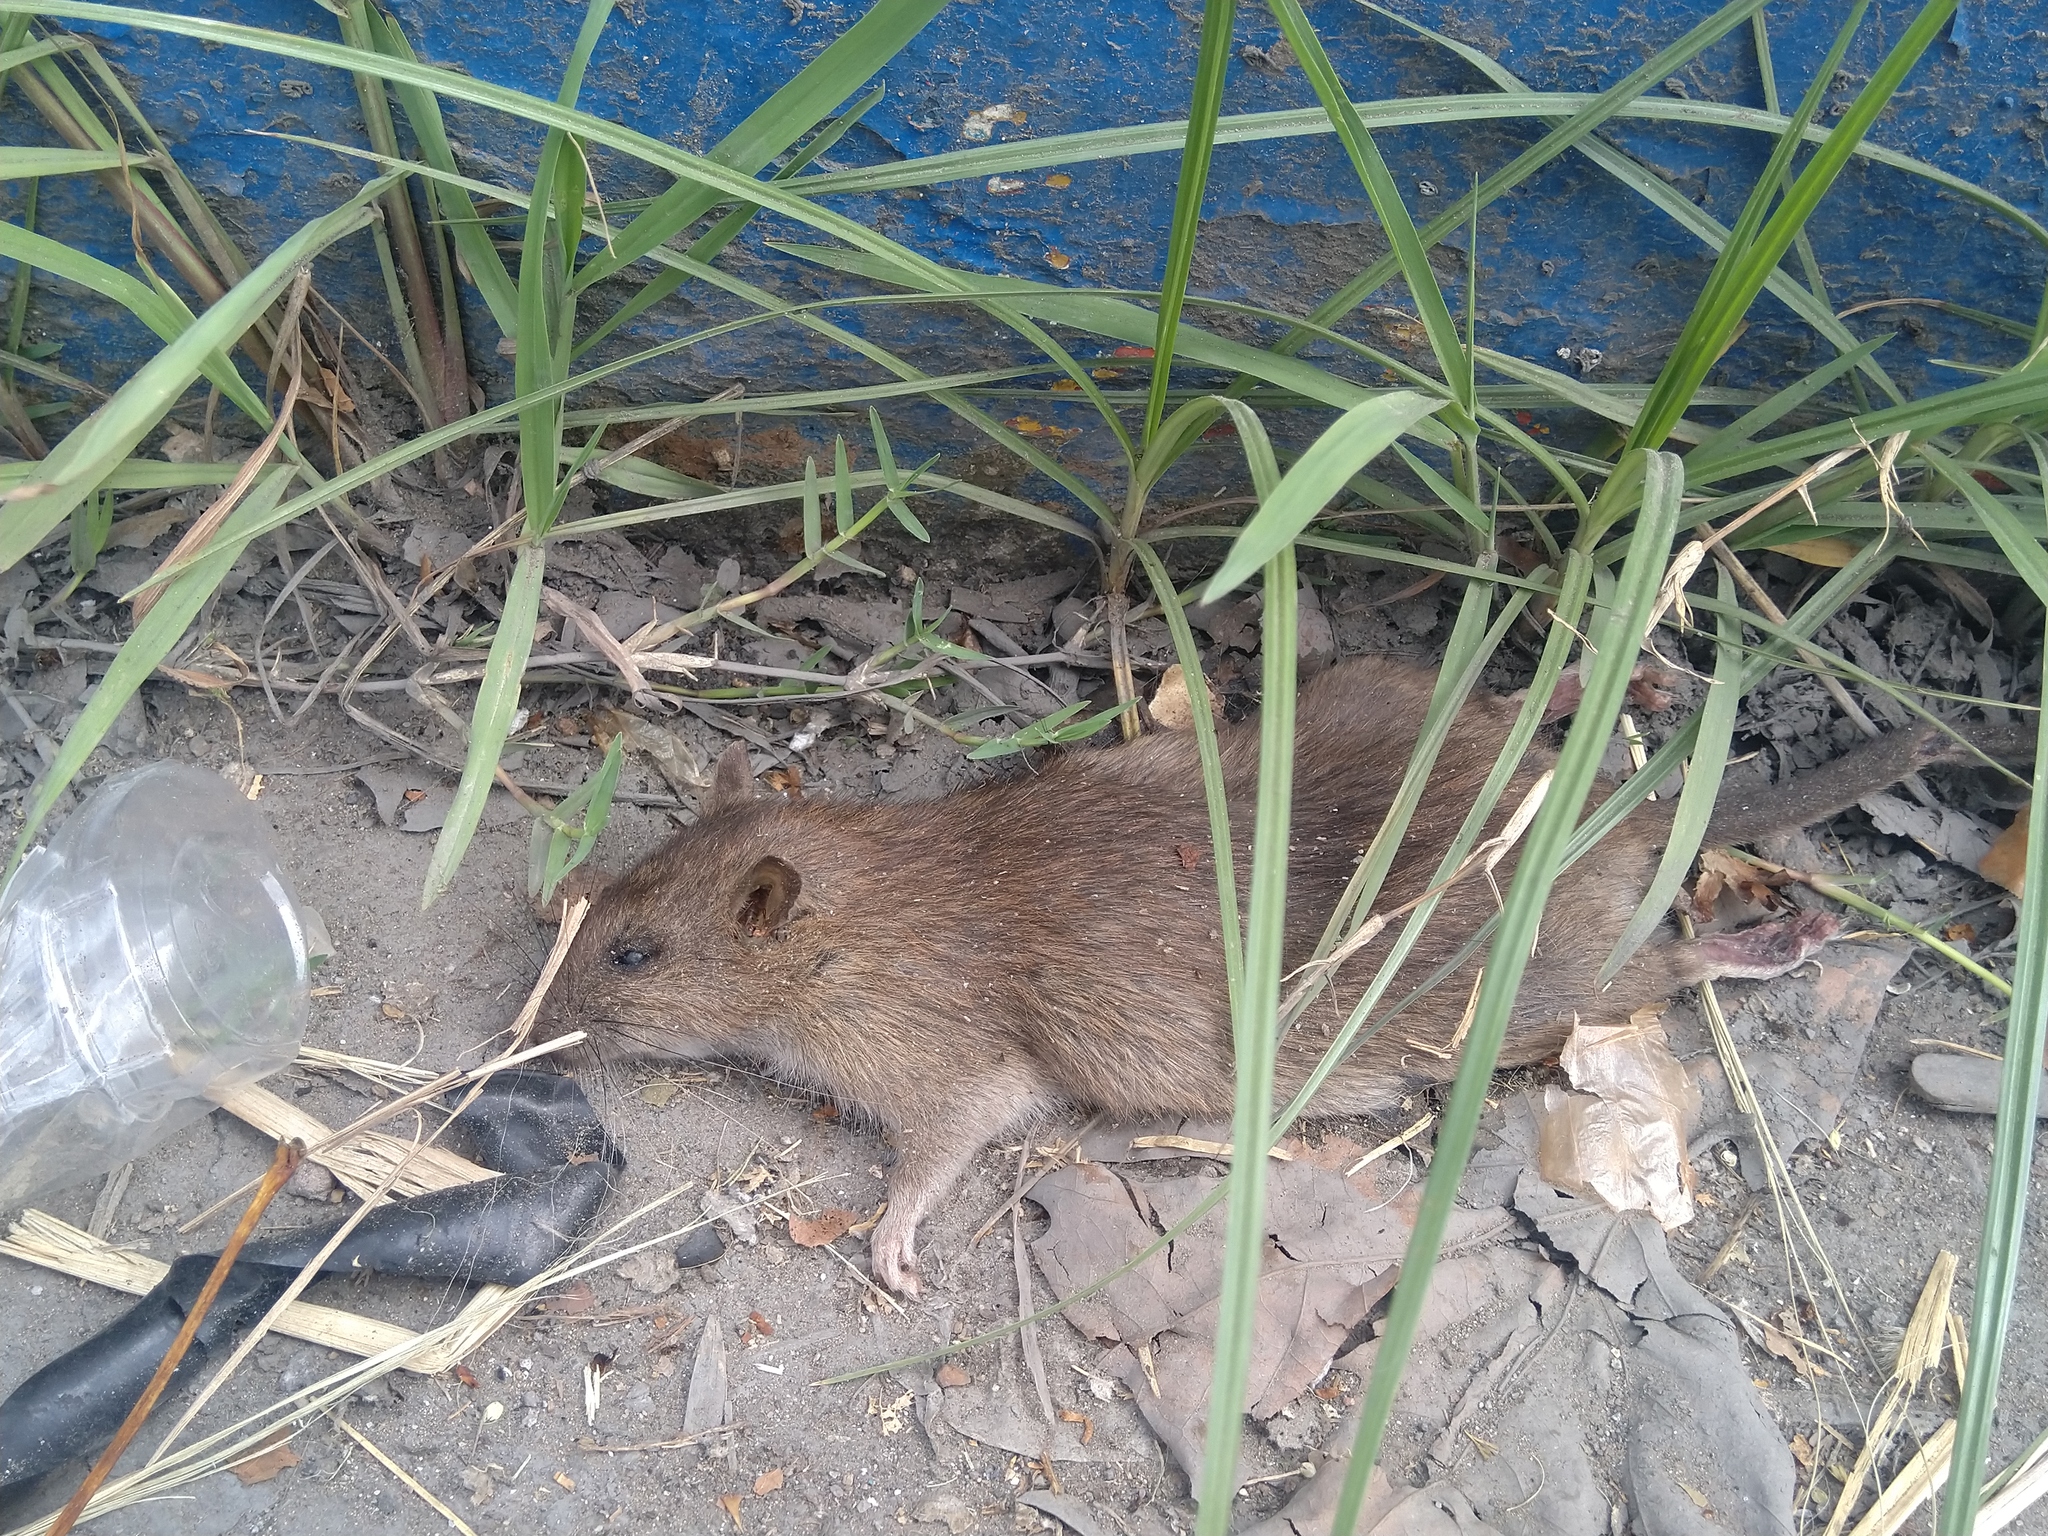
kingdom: Animalia
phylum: Chordata
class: Mammalia
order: Rodentia
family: Muridae
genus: Rattus
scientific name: Rattus norvegicus
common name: Brown rat
